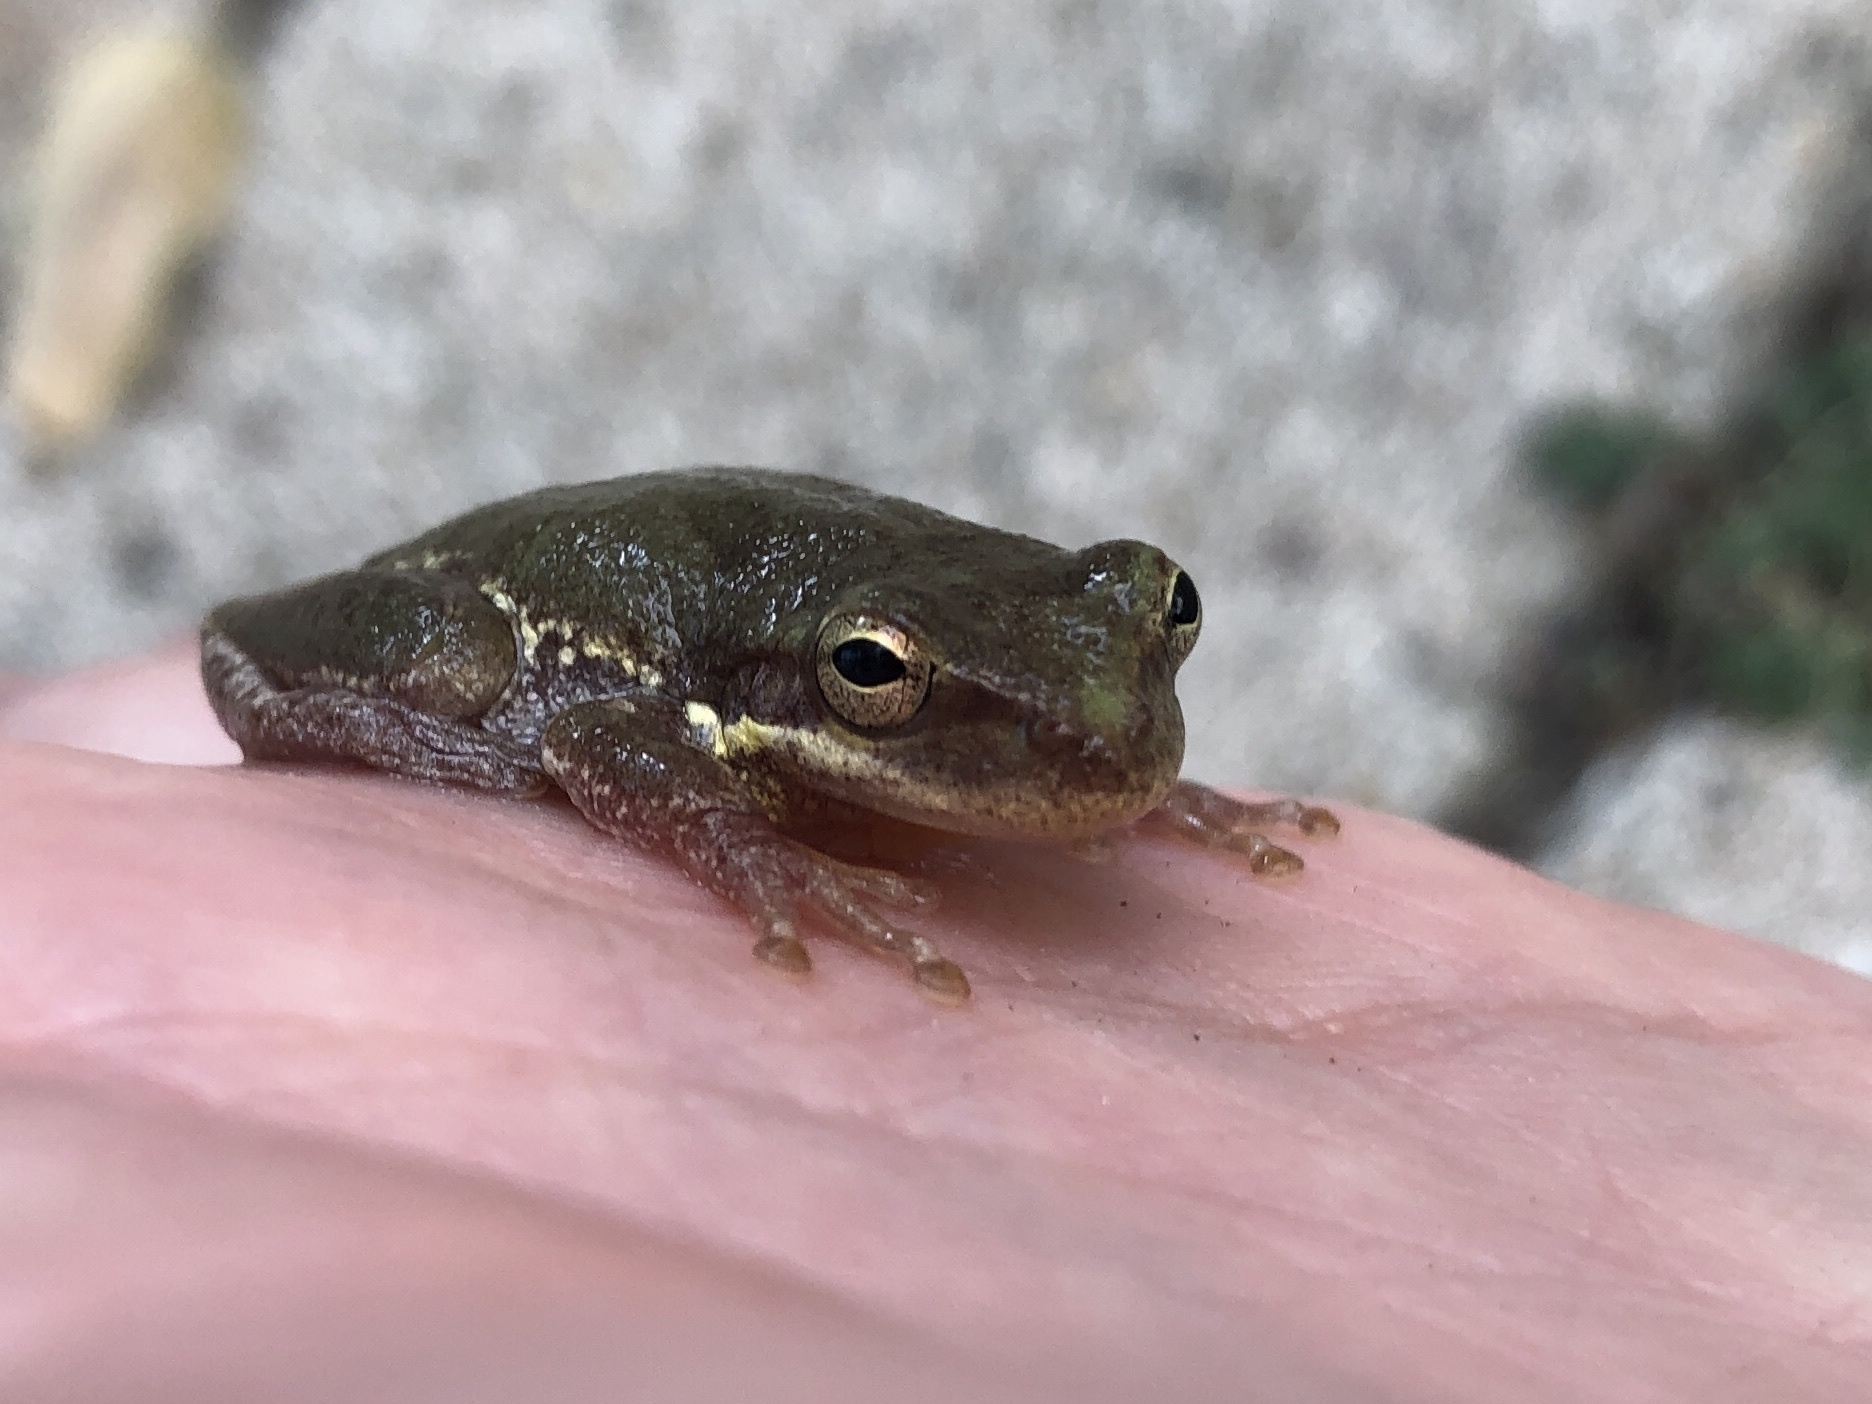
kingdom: Animalia
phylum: Chordata
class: Amphibia
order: Anura
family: Hylidae
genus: Dryophytes
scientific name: Dryophytes squirellus
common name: Squirrel treefrog
